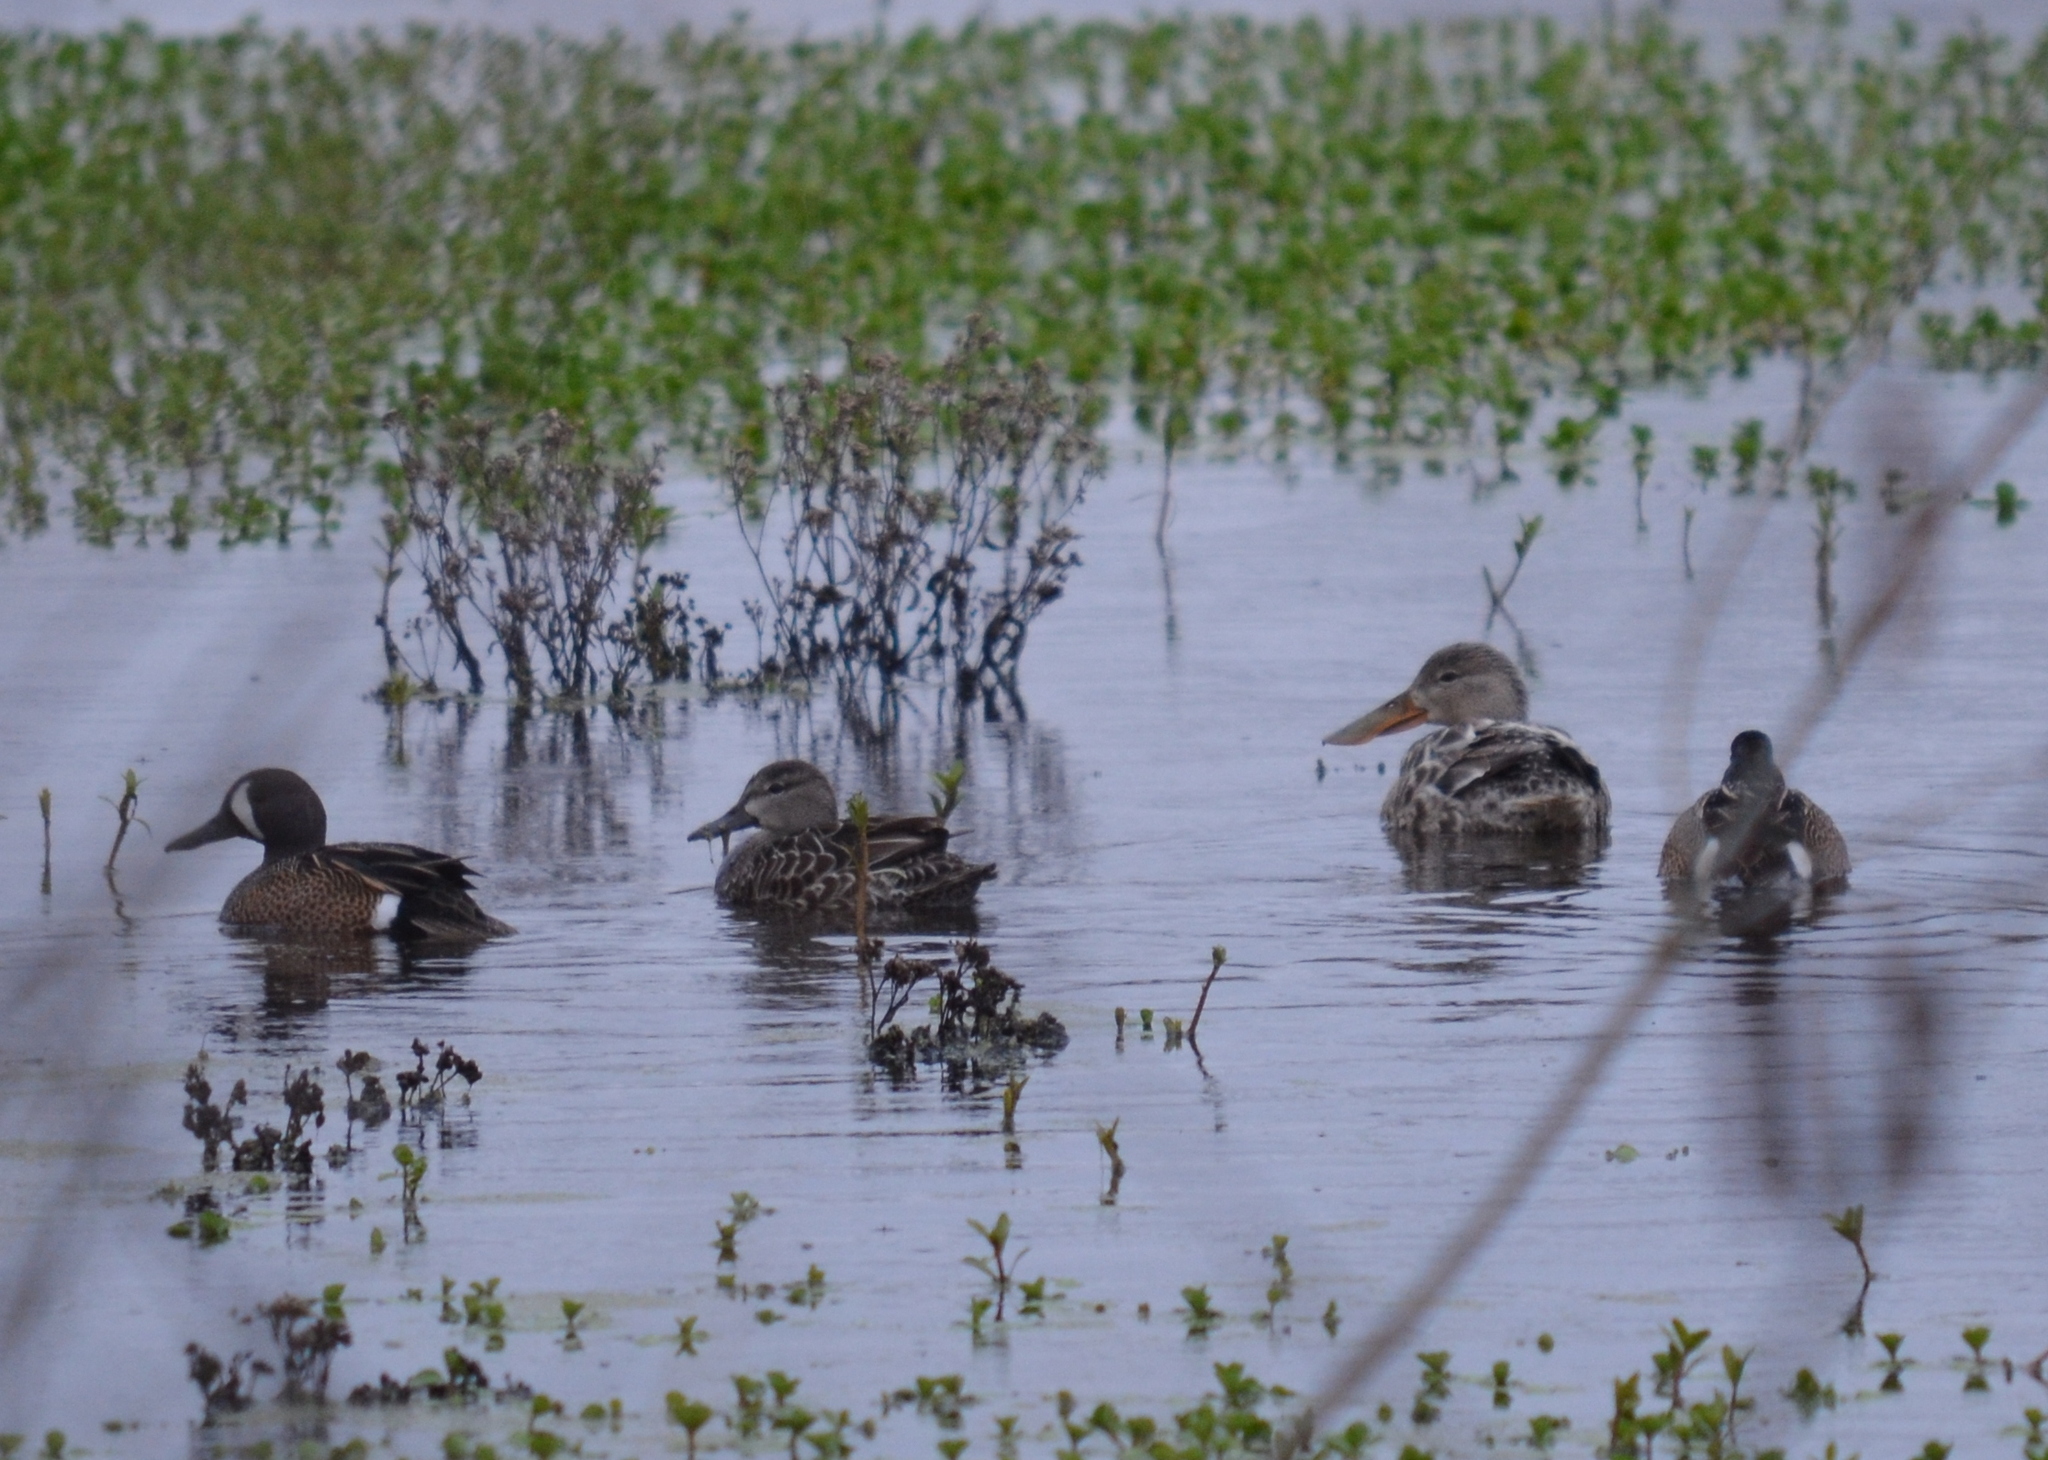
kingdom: Animalia
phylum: Chordata
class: Aves
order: Anseriformes
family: Anatidae
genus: Spatula
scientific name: Spatula clypeata
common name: Northern shoveler
